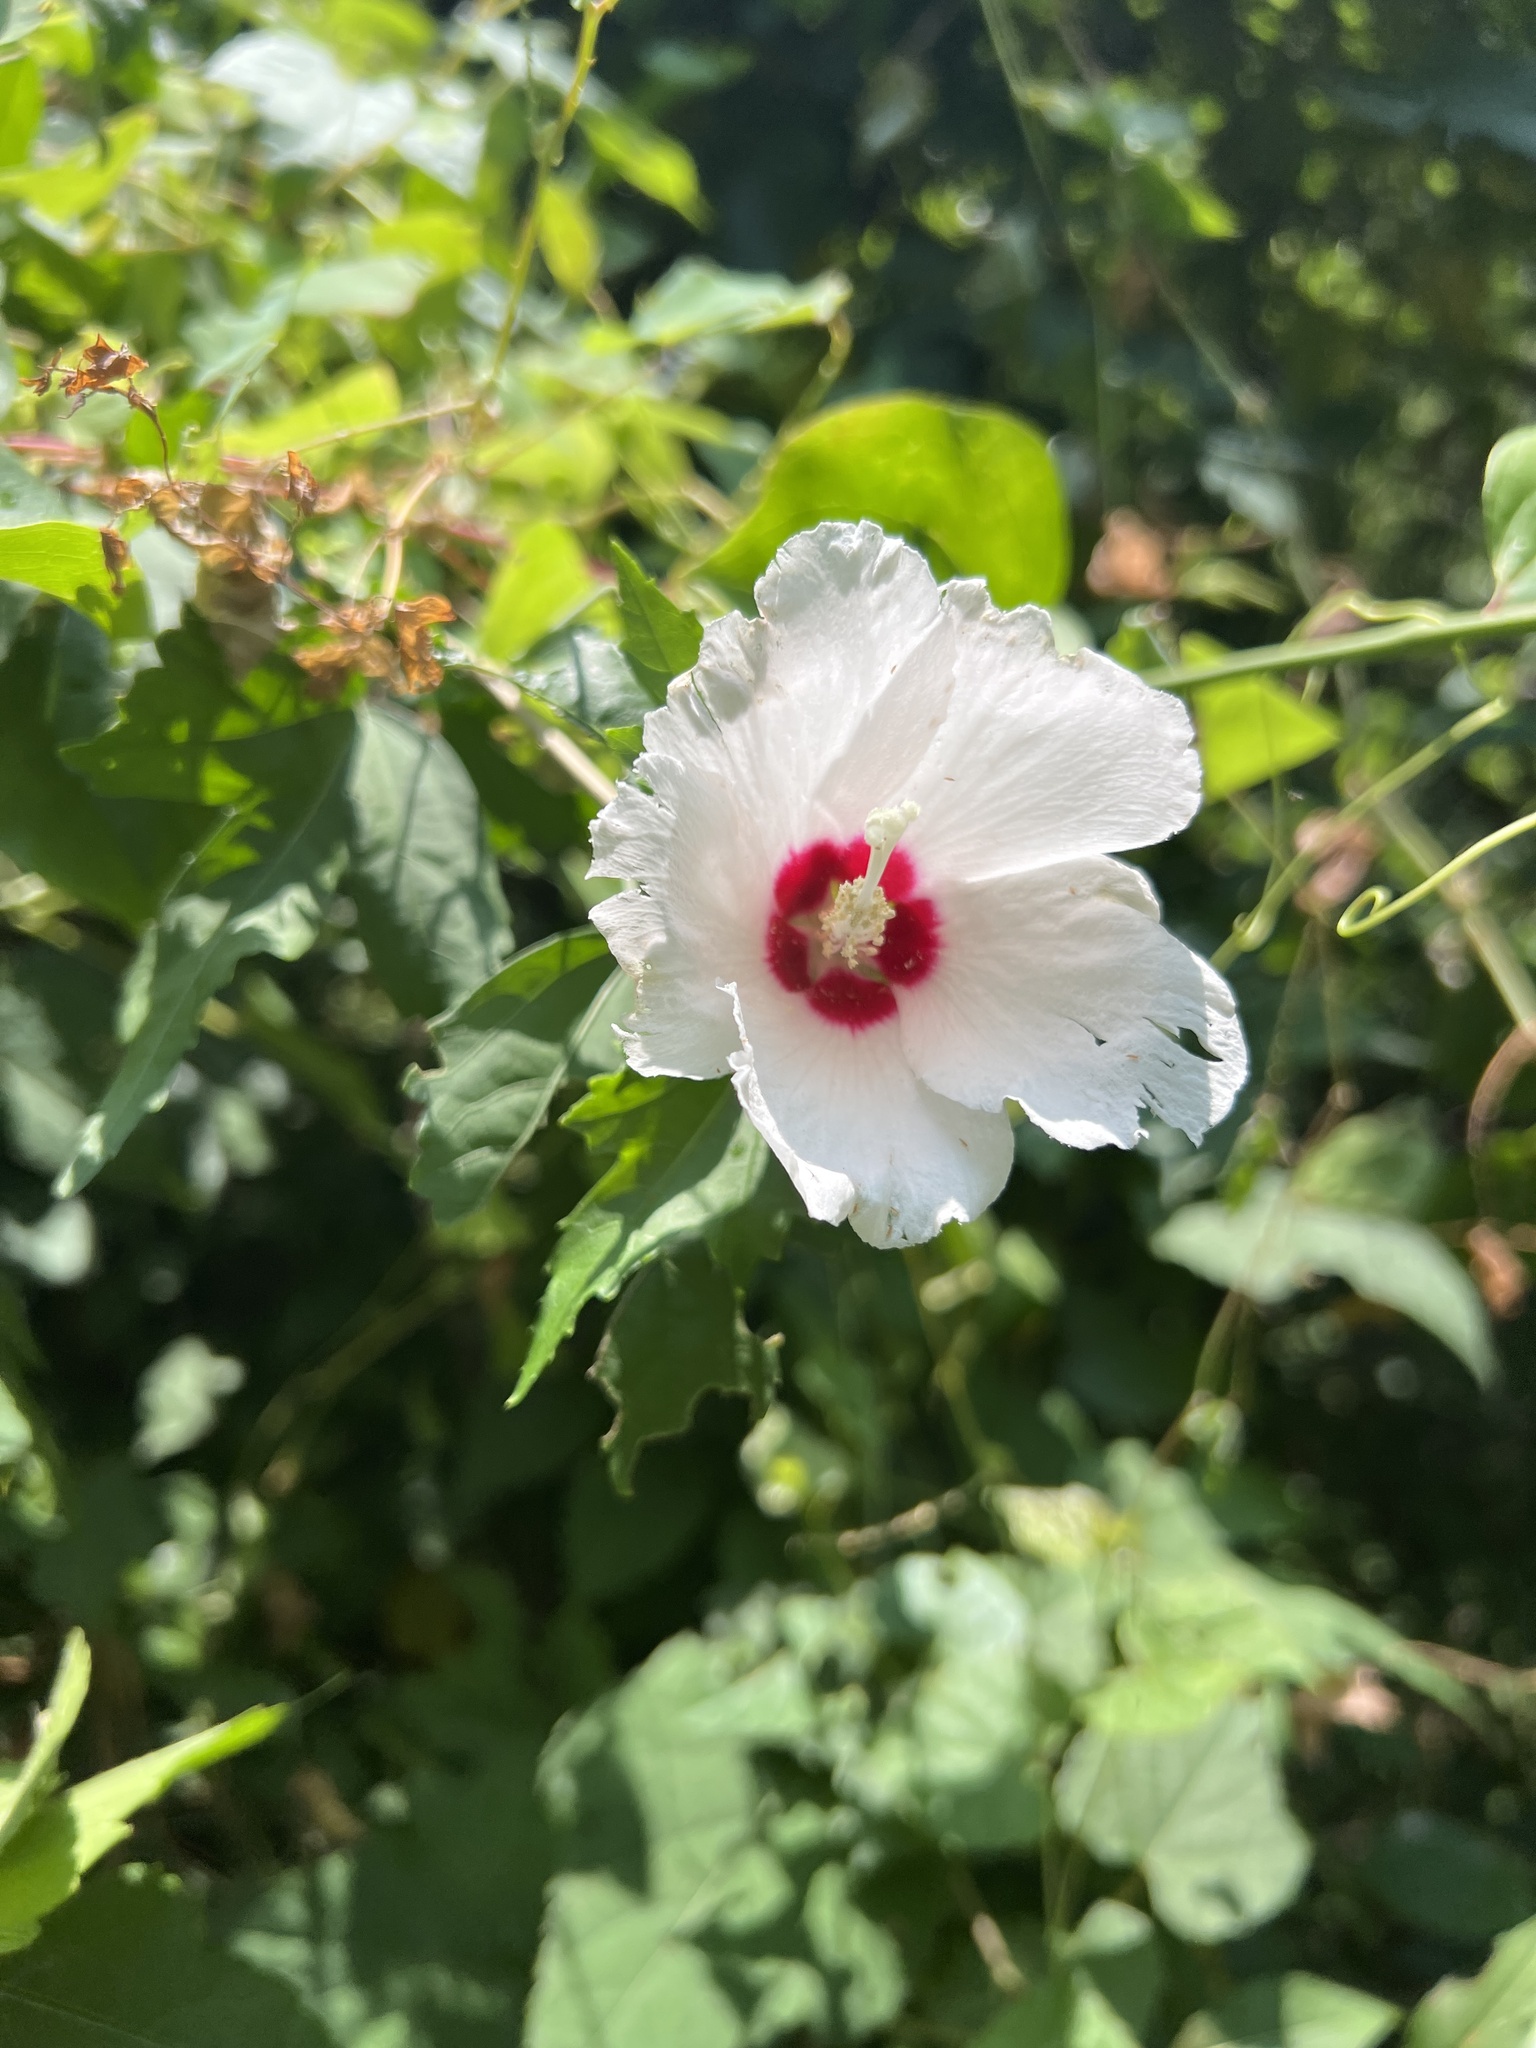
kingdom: Plantae
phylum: Tracheophyta
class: Magnoliopsida
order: Malvales
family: Malvaceae
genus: Hibiscus
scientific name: Hibiscus syriacus
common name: Syrian ketmia
